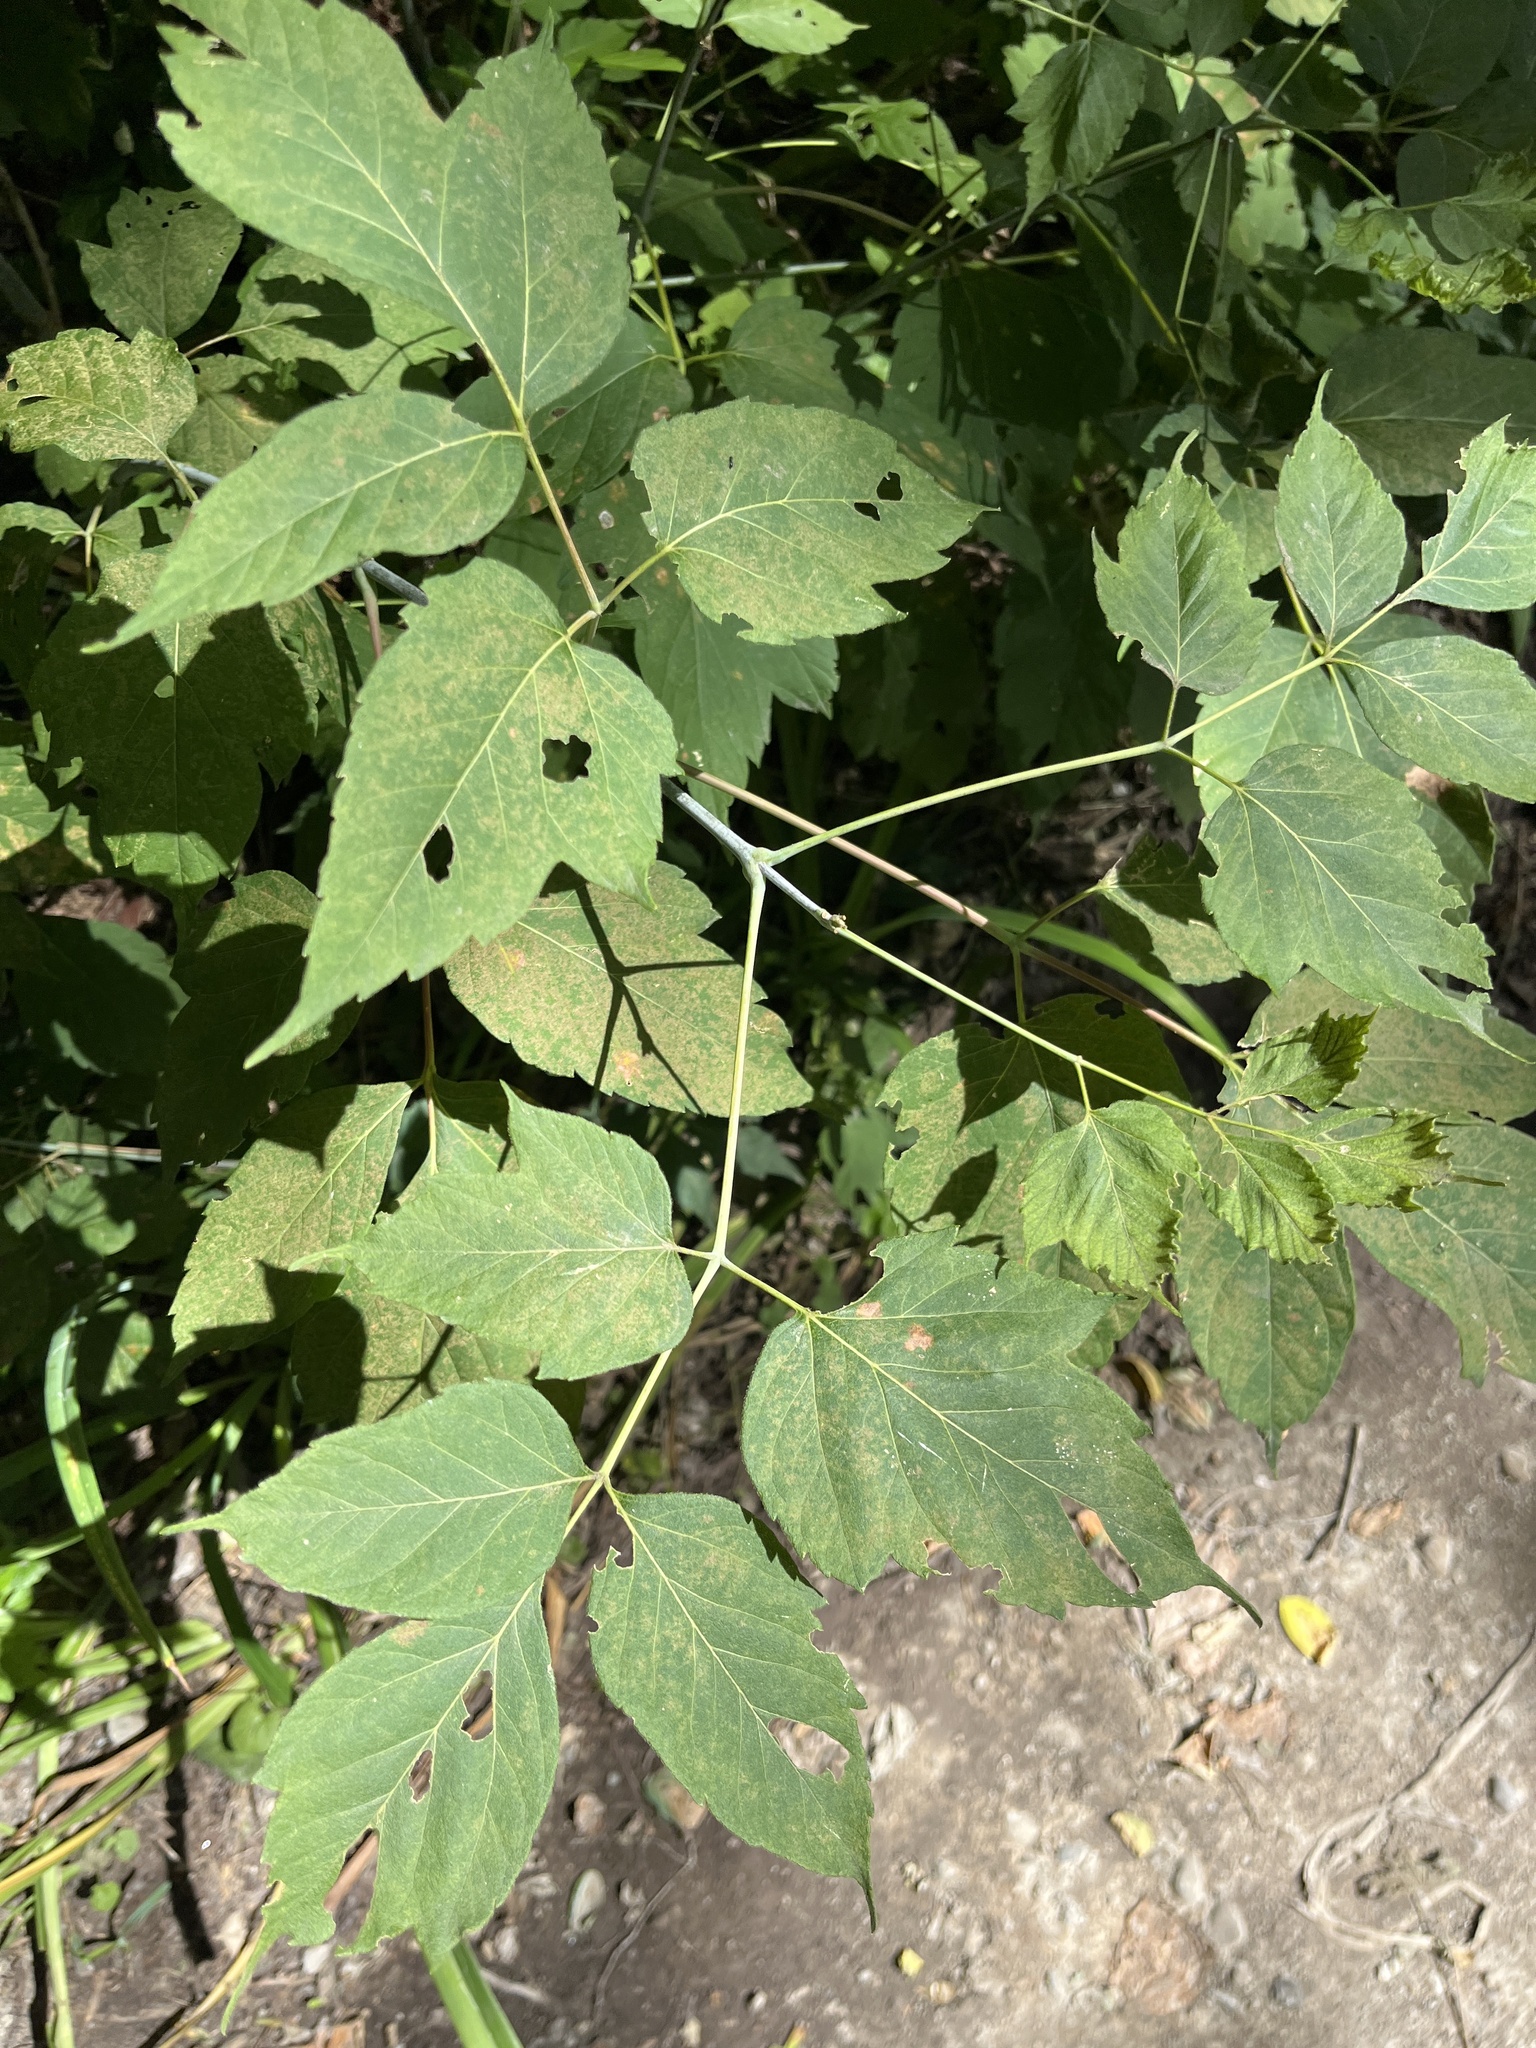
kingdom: Plantae
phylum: Tracheophyta
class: Magnoliopsida
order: Sapindales
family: Sapindaceae
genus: Acer
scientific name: Acer negundo
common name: Ashleaf maple
